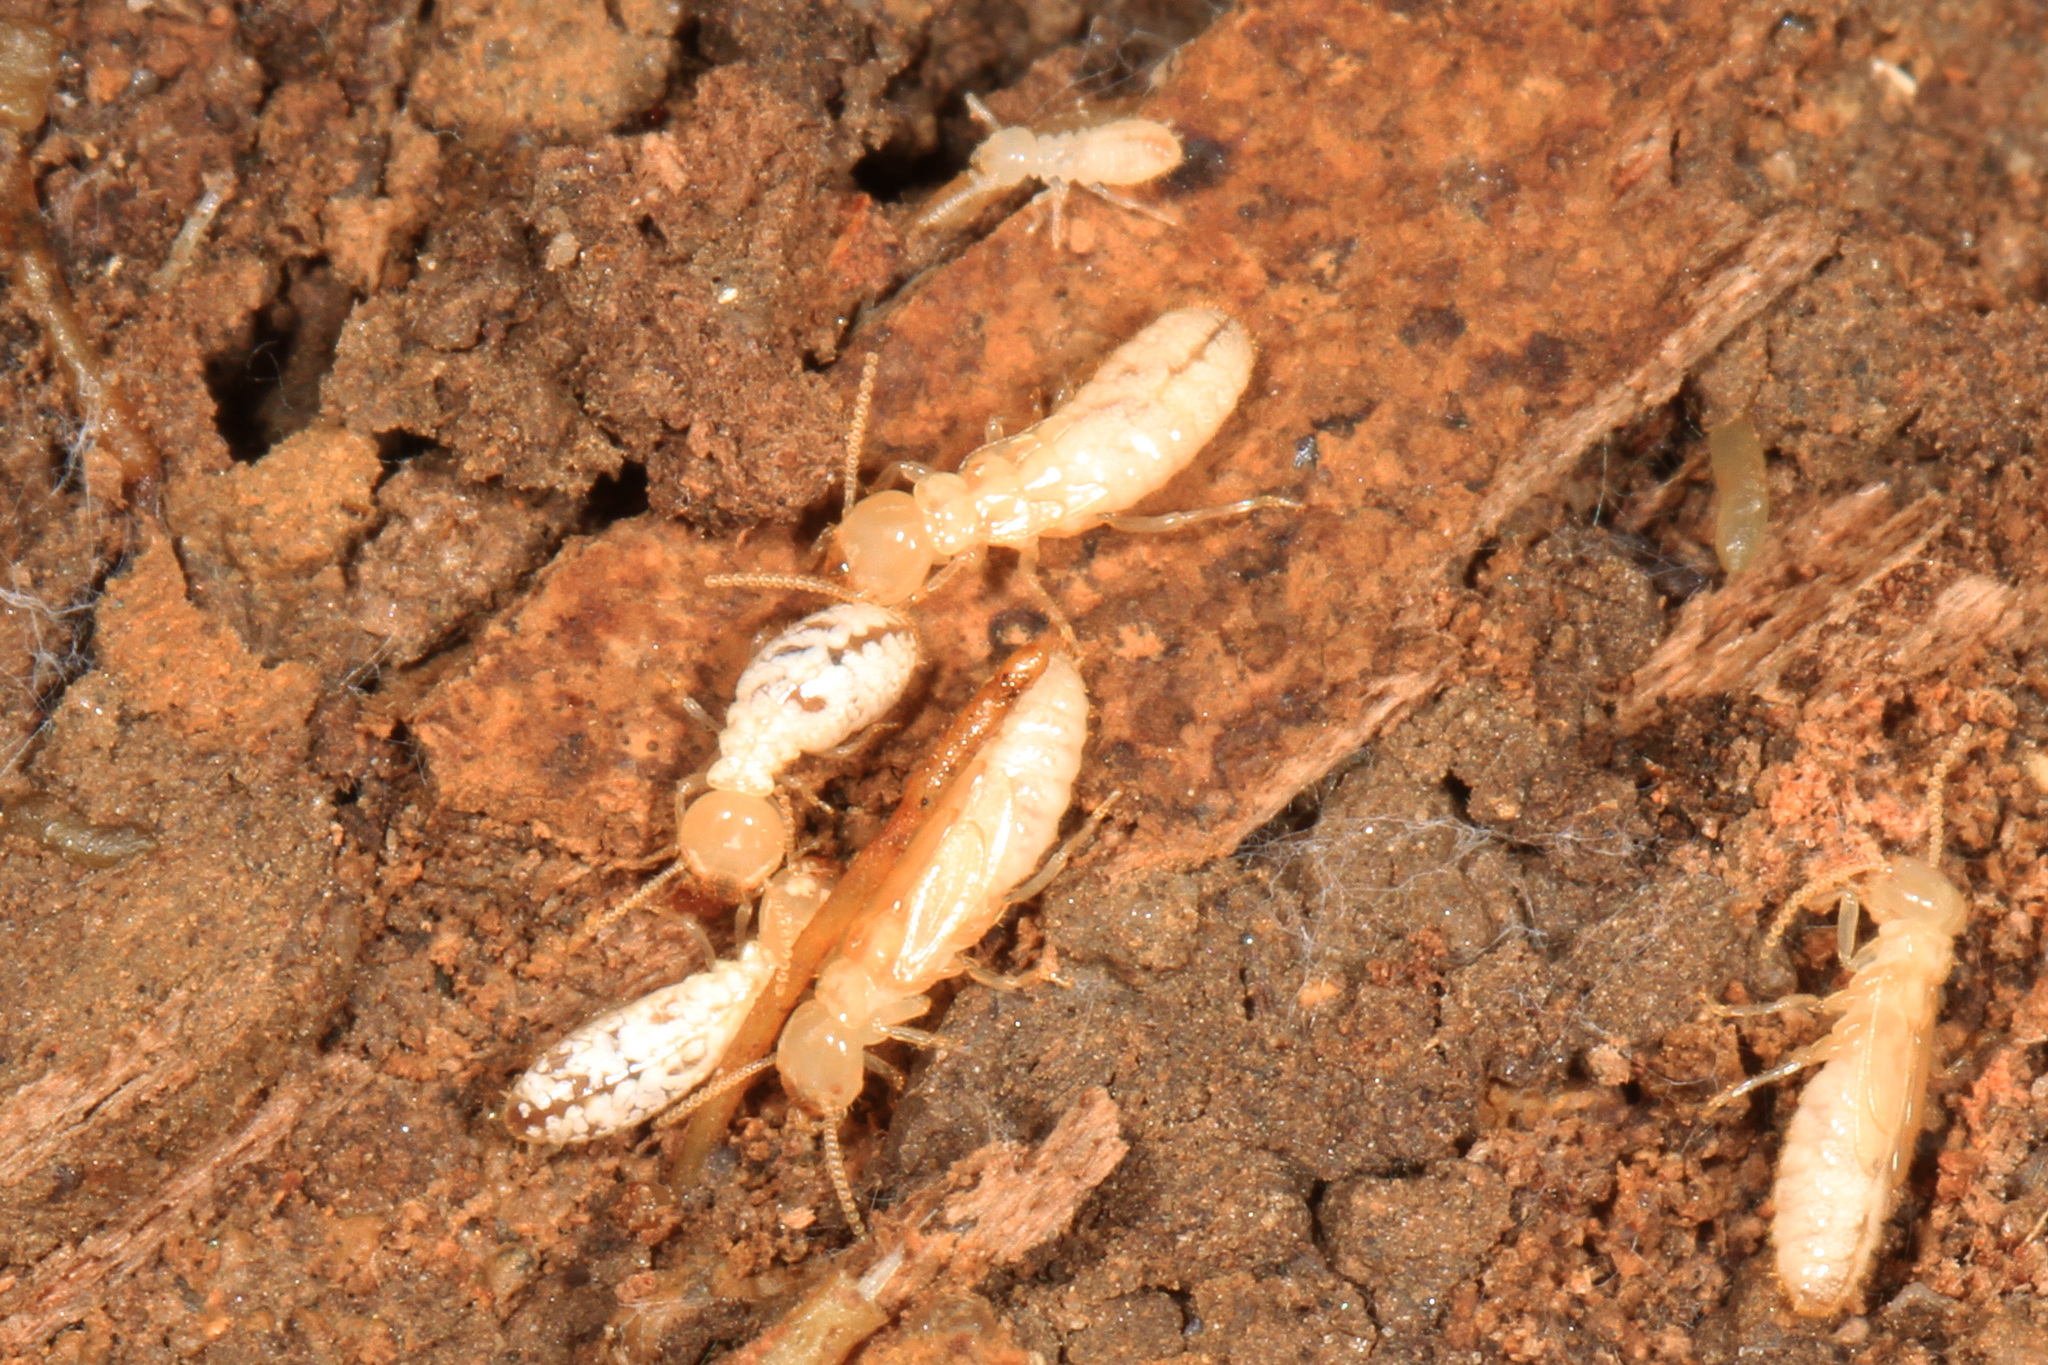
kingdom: Animalia
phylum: Arthropoda
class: Insecta
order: Blattodea
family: Rhinotermitidae
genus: Reticulitermes
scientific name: Reticulitermes flavipes
